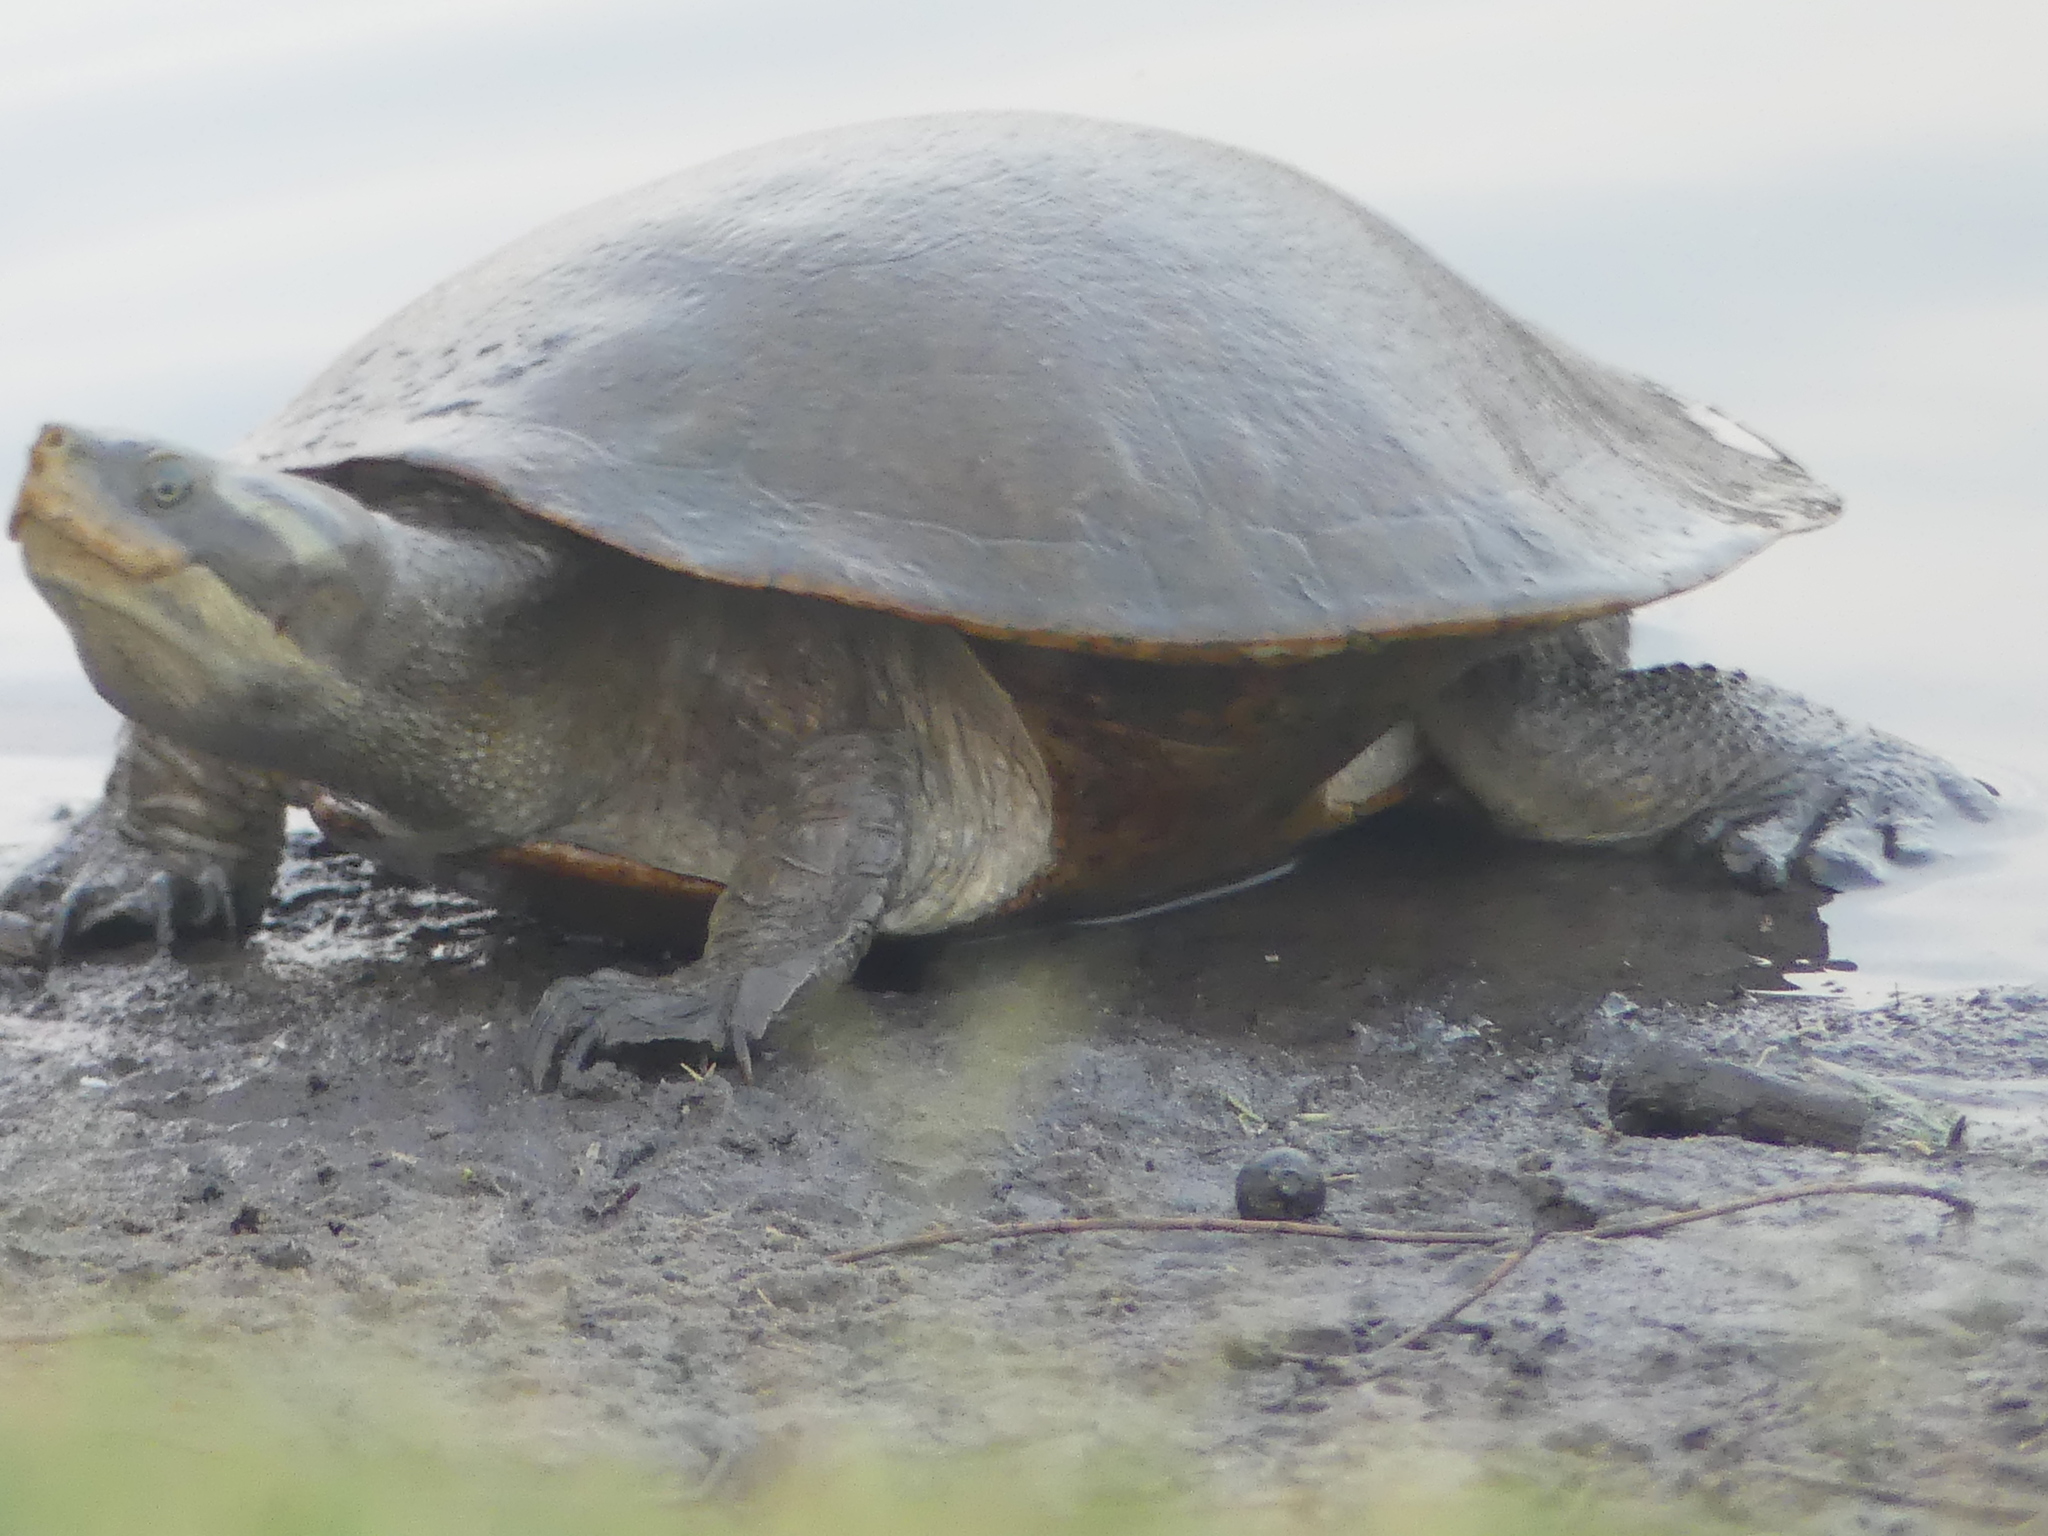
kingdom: Animalia
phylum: Chordata
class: Testudines
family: Chelidae
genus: Emydura
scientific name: Emydura macquarii
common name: Murray river turtle
